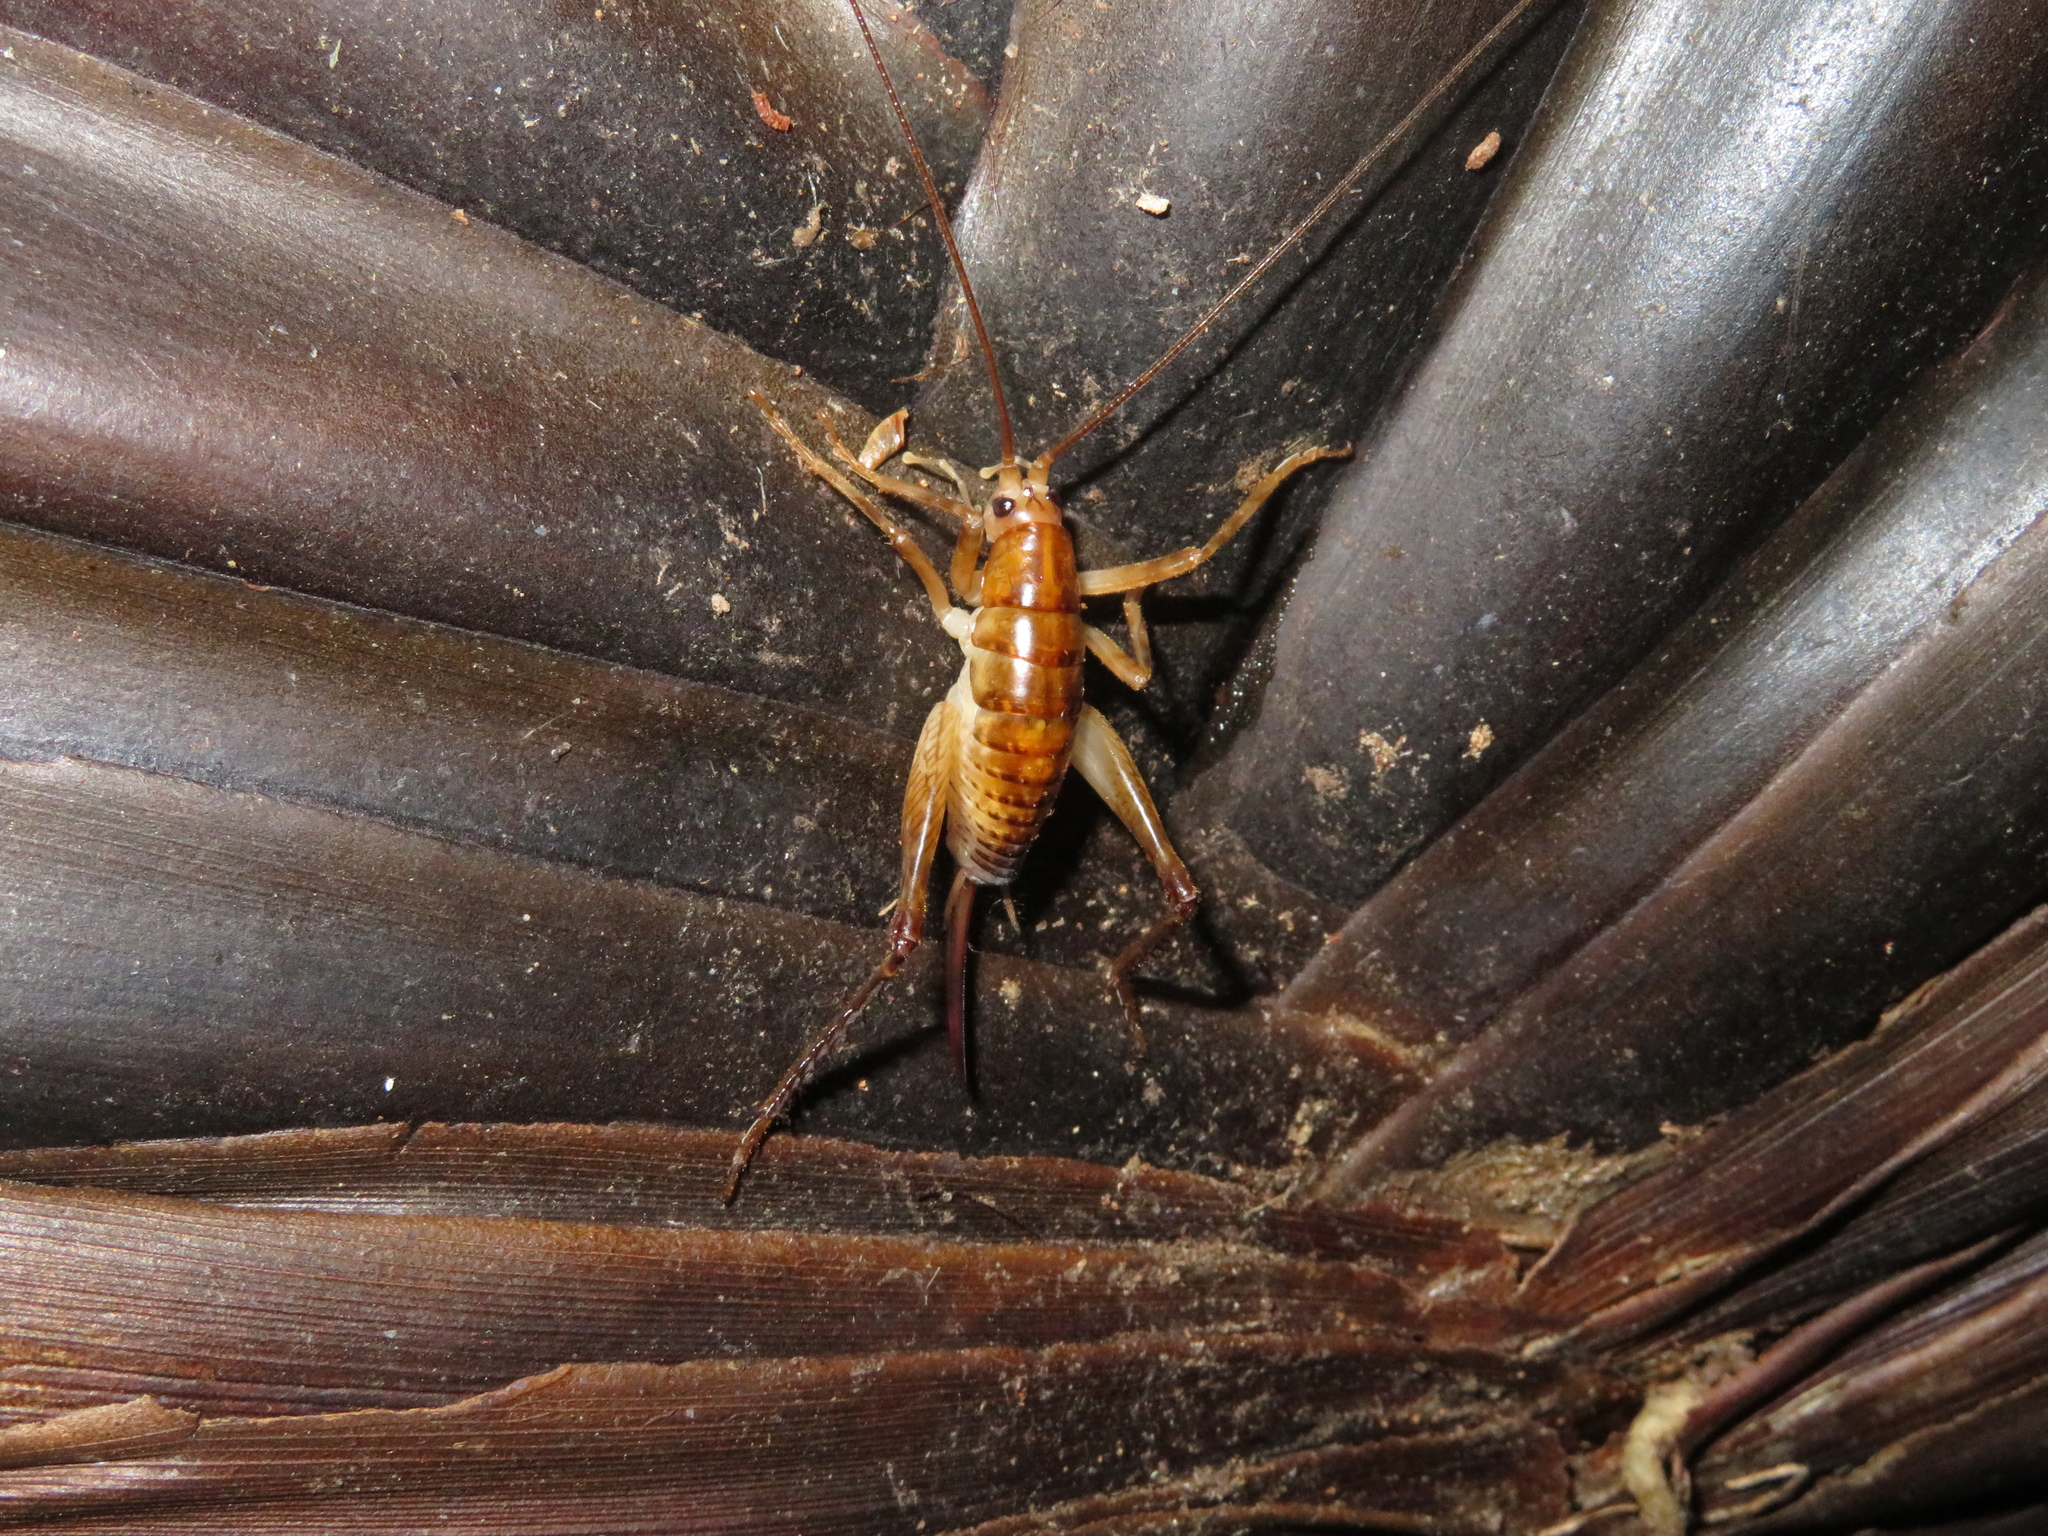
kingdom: Animalia
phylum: Arthropoda
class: Insecta
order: Orthoptera
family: Rhaphidophoridae
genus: Talitropsis
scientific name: Talitropsis sedilloti
